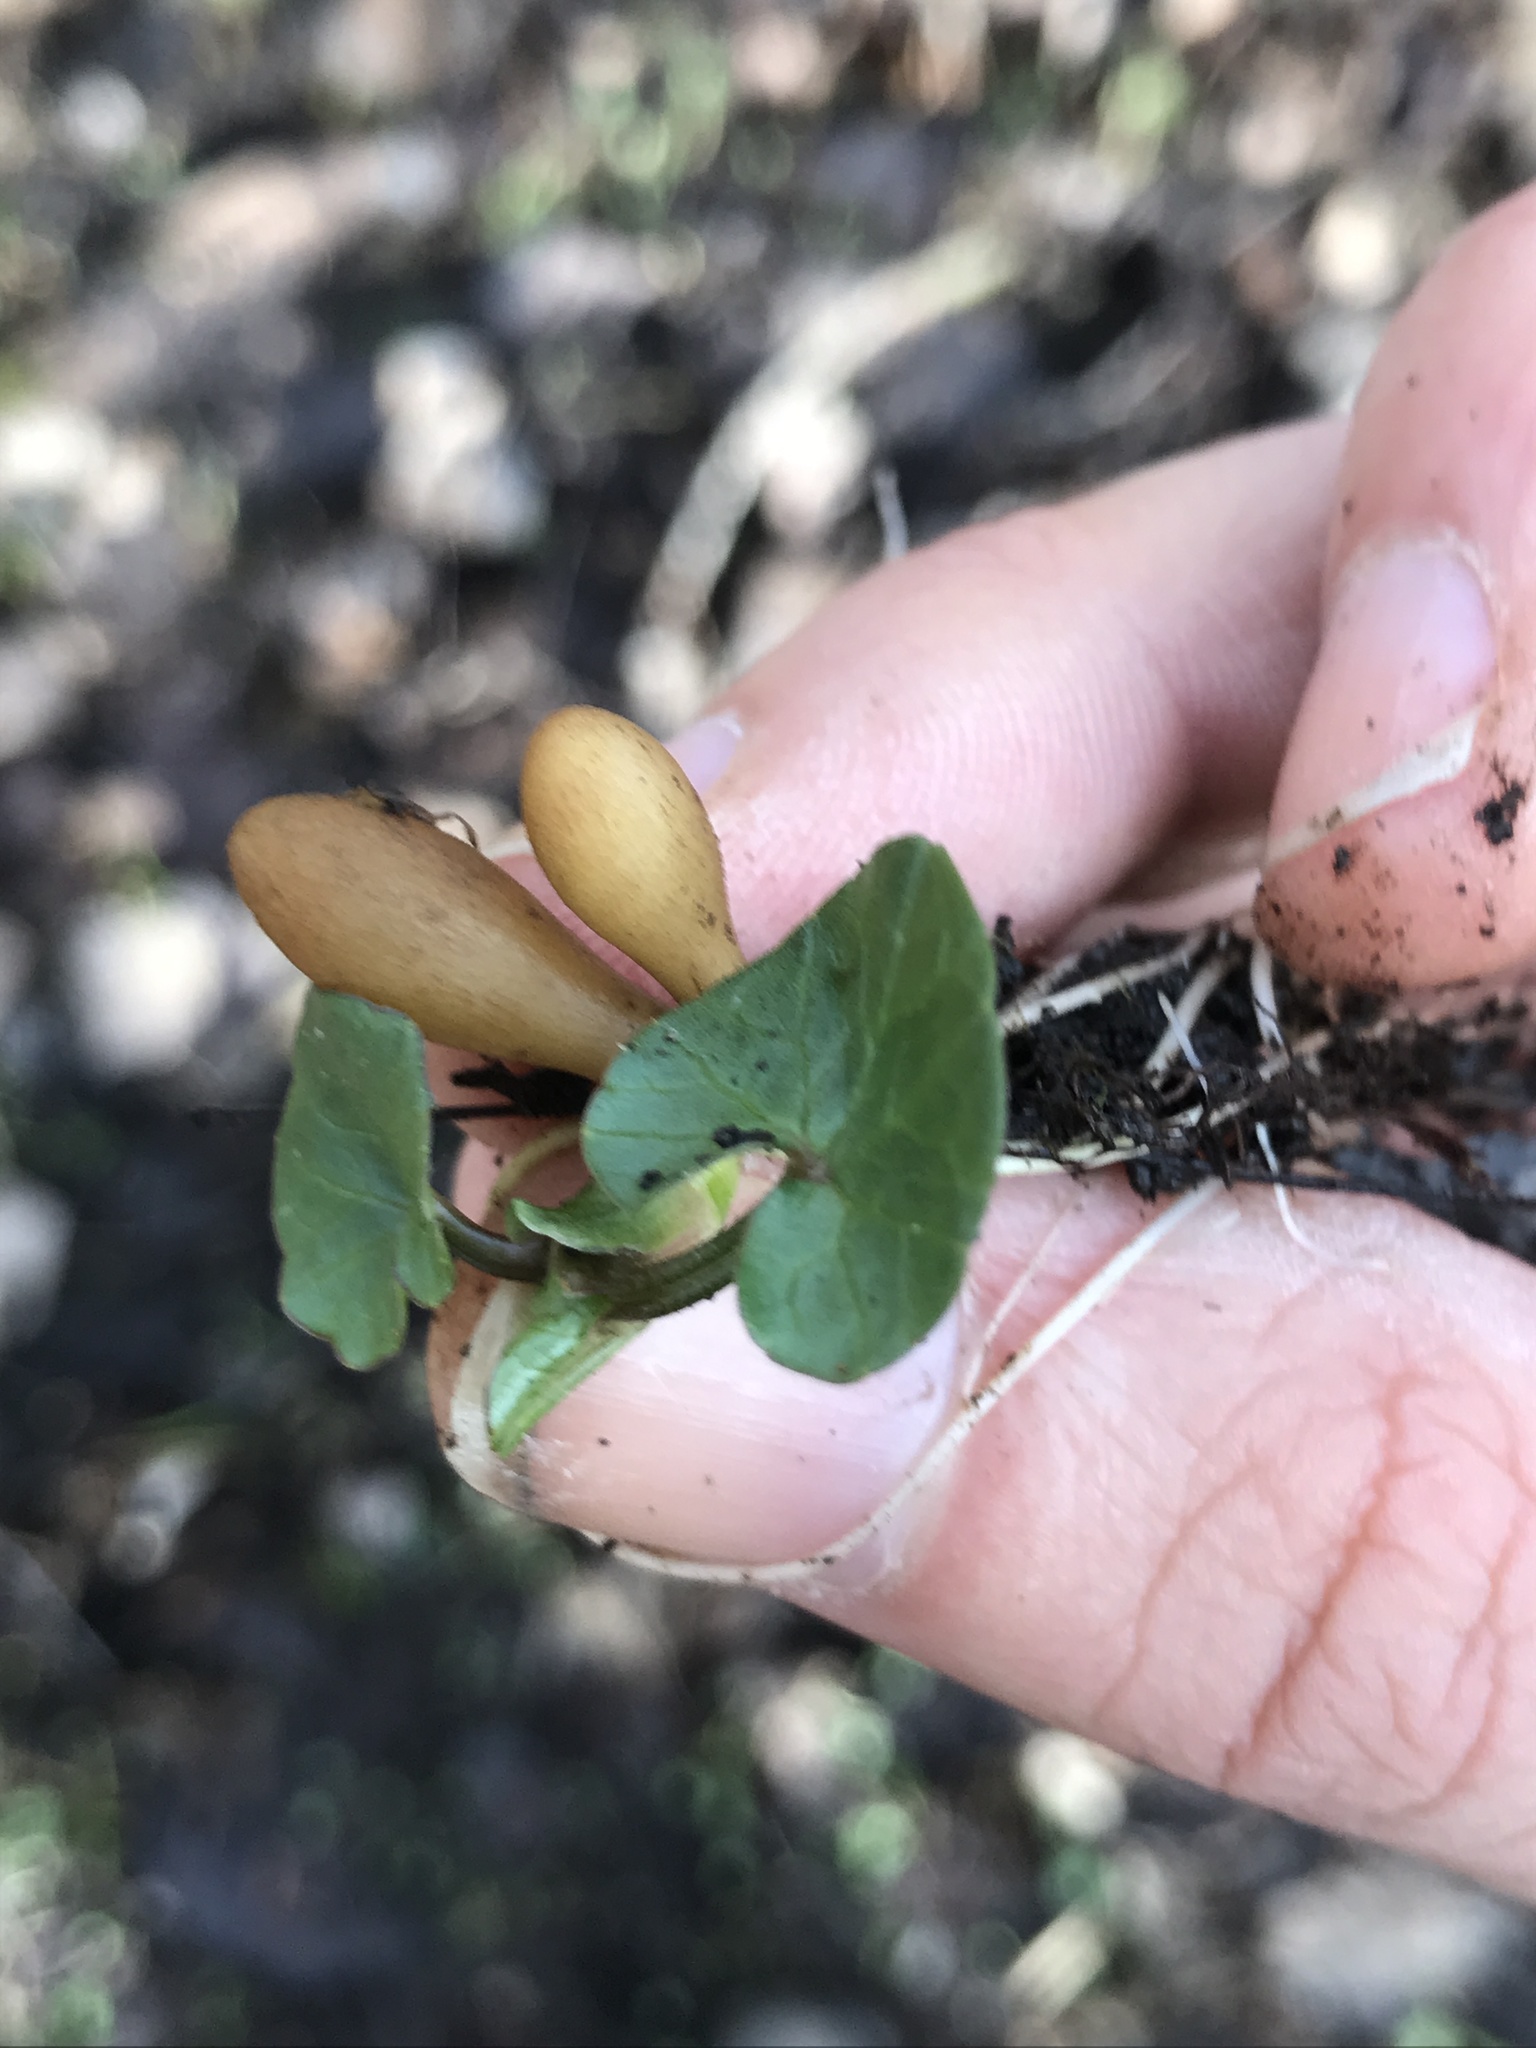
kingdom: Plantae
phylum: Tracheophyta
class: Magnoliopsida
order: Ranunculales
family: Ranunculaceae
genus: Ficaria
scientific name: Ficaria verna
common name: Lesser celandine
